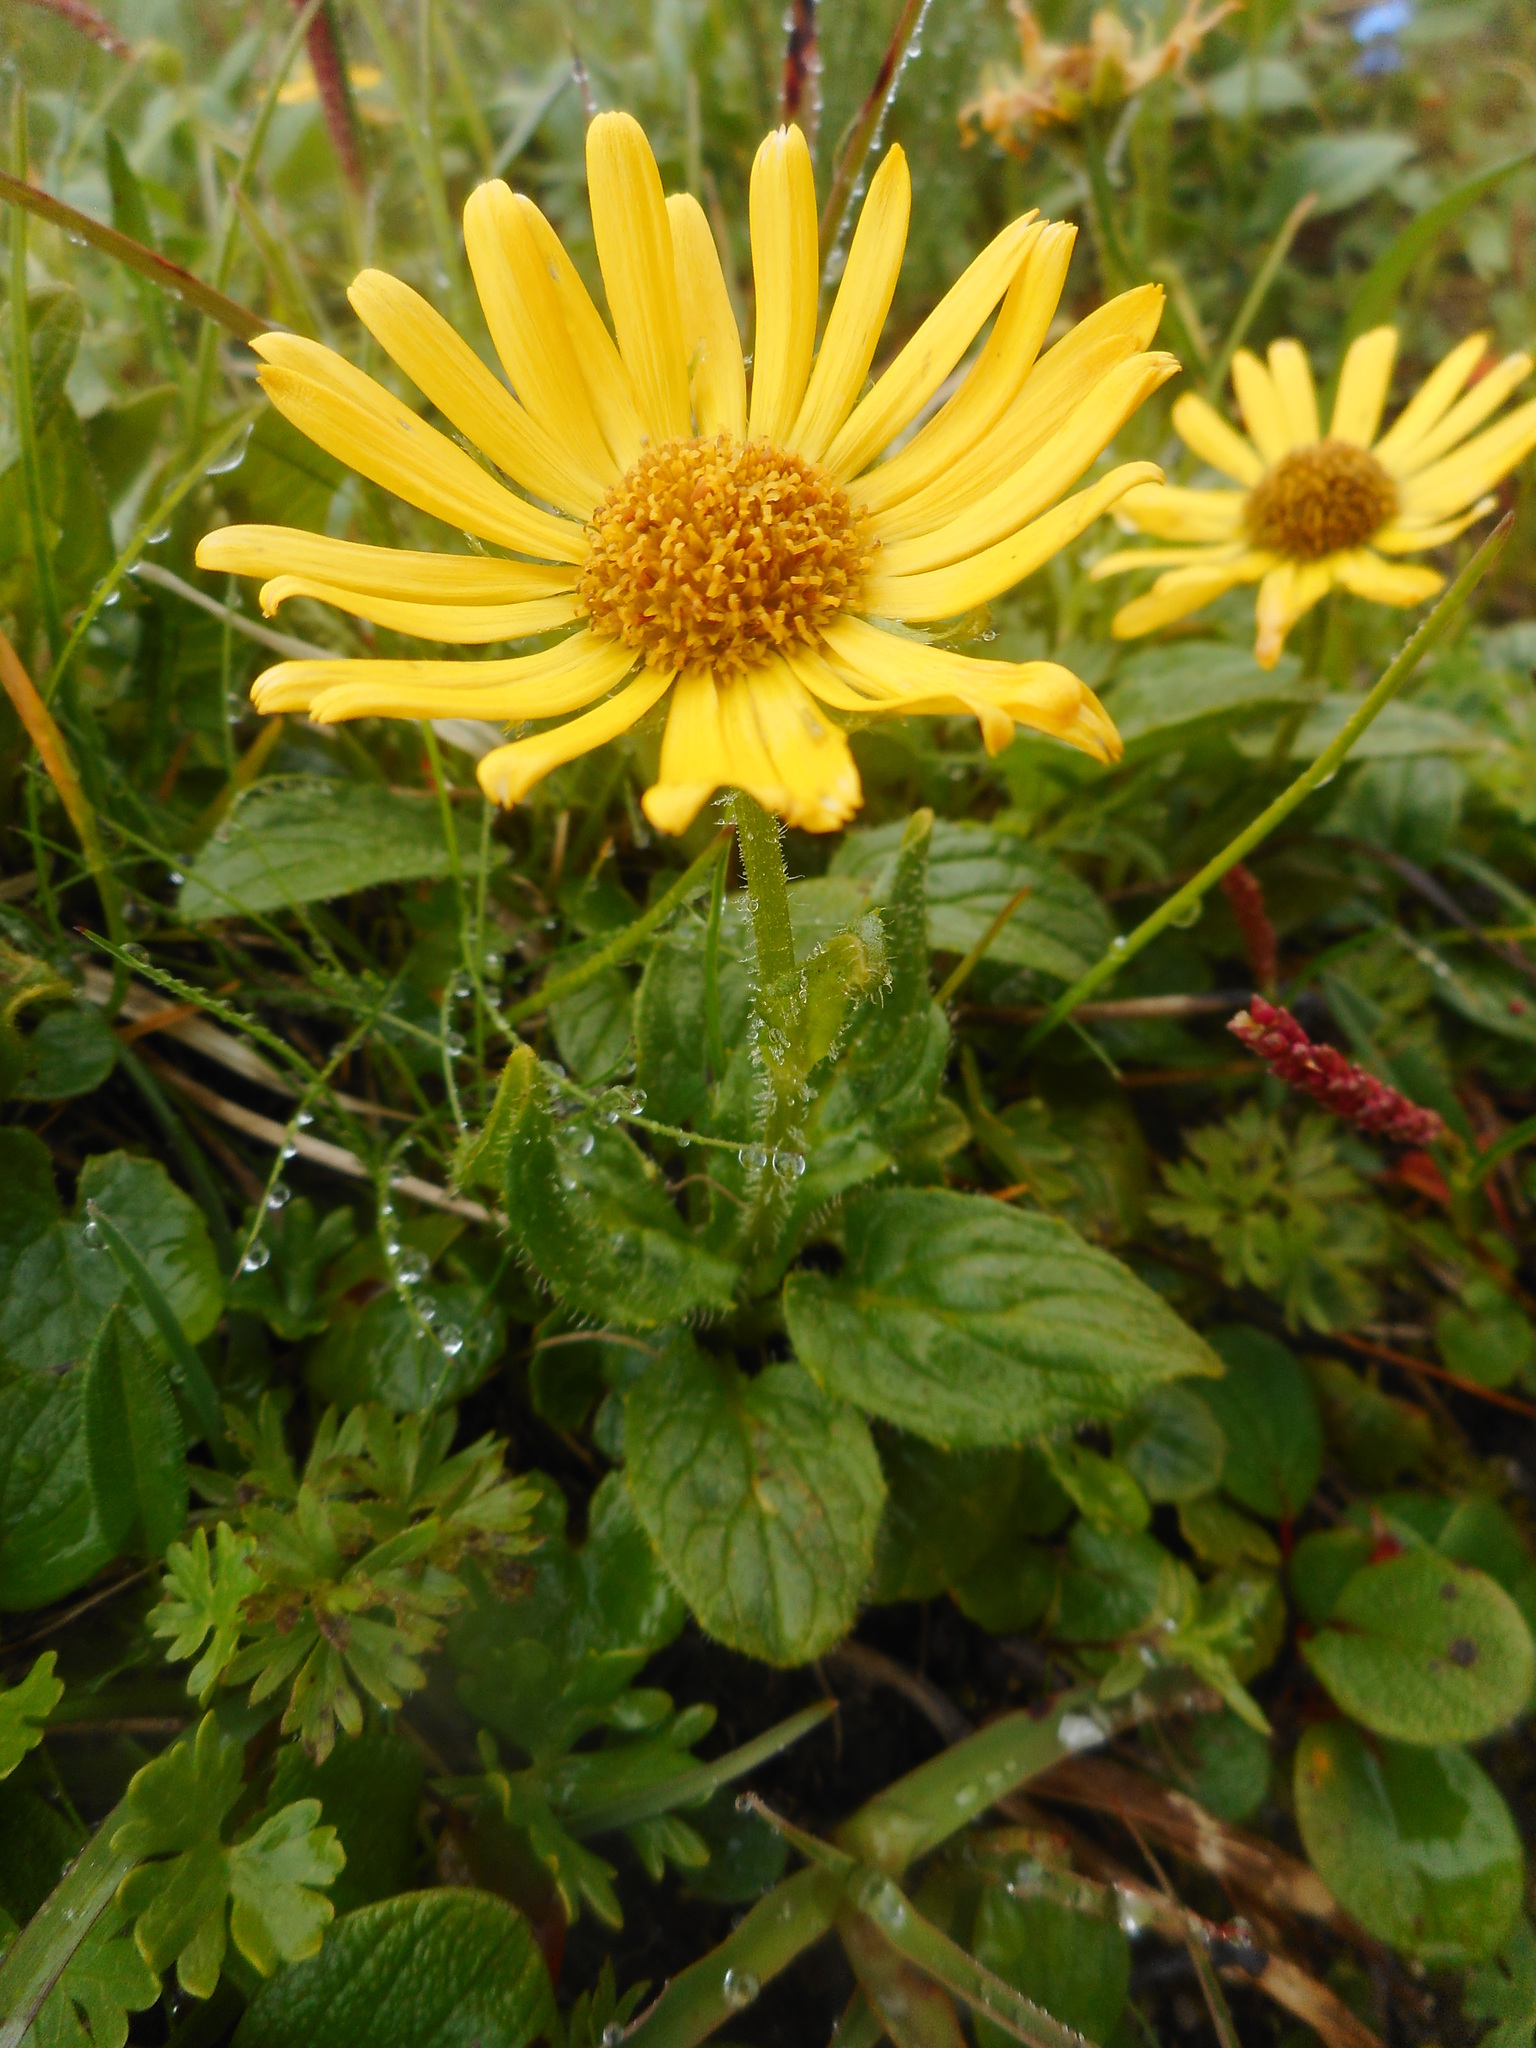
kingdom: Plantae
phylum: Tracheophyta
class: Magnoliopsida
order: Asterales
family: Asteraceae
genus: Doronicum
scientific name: Doronicum glaciale
